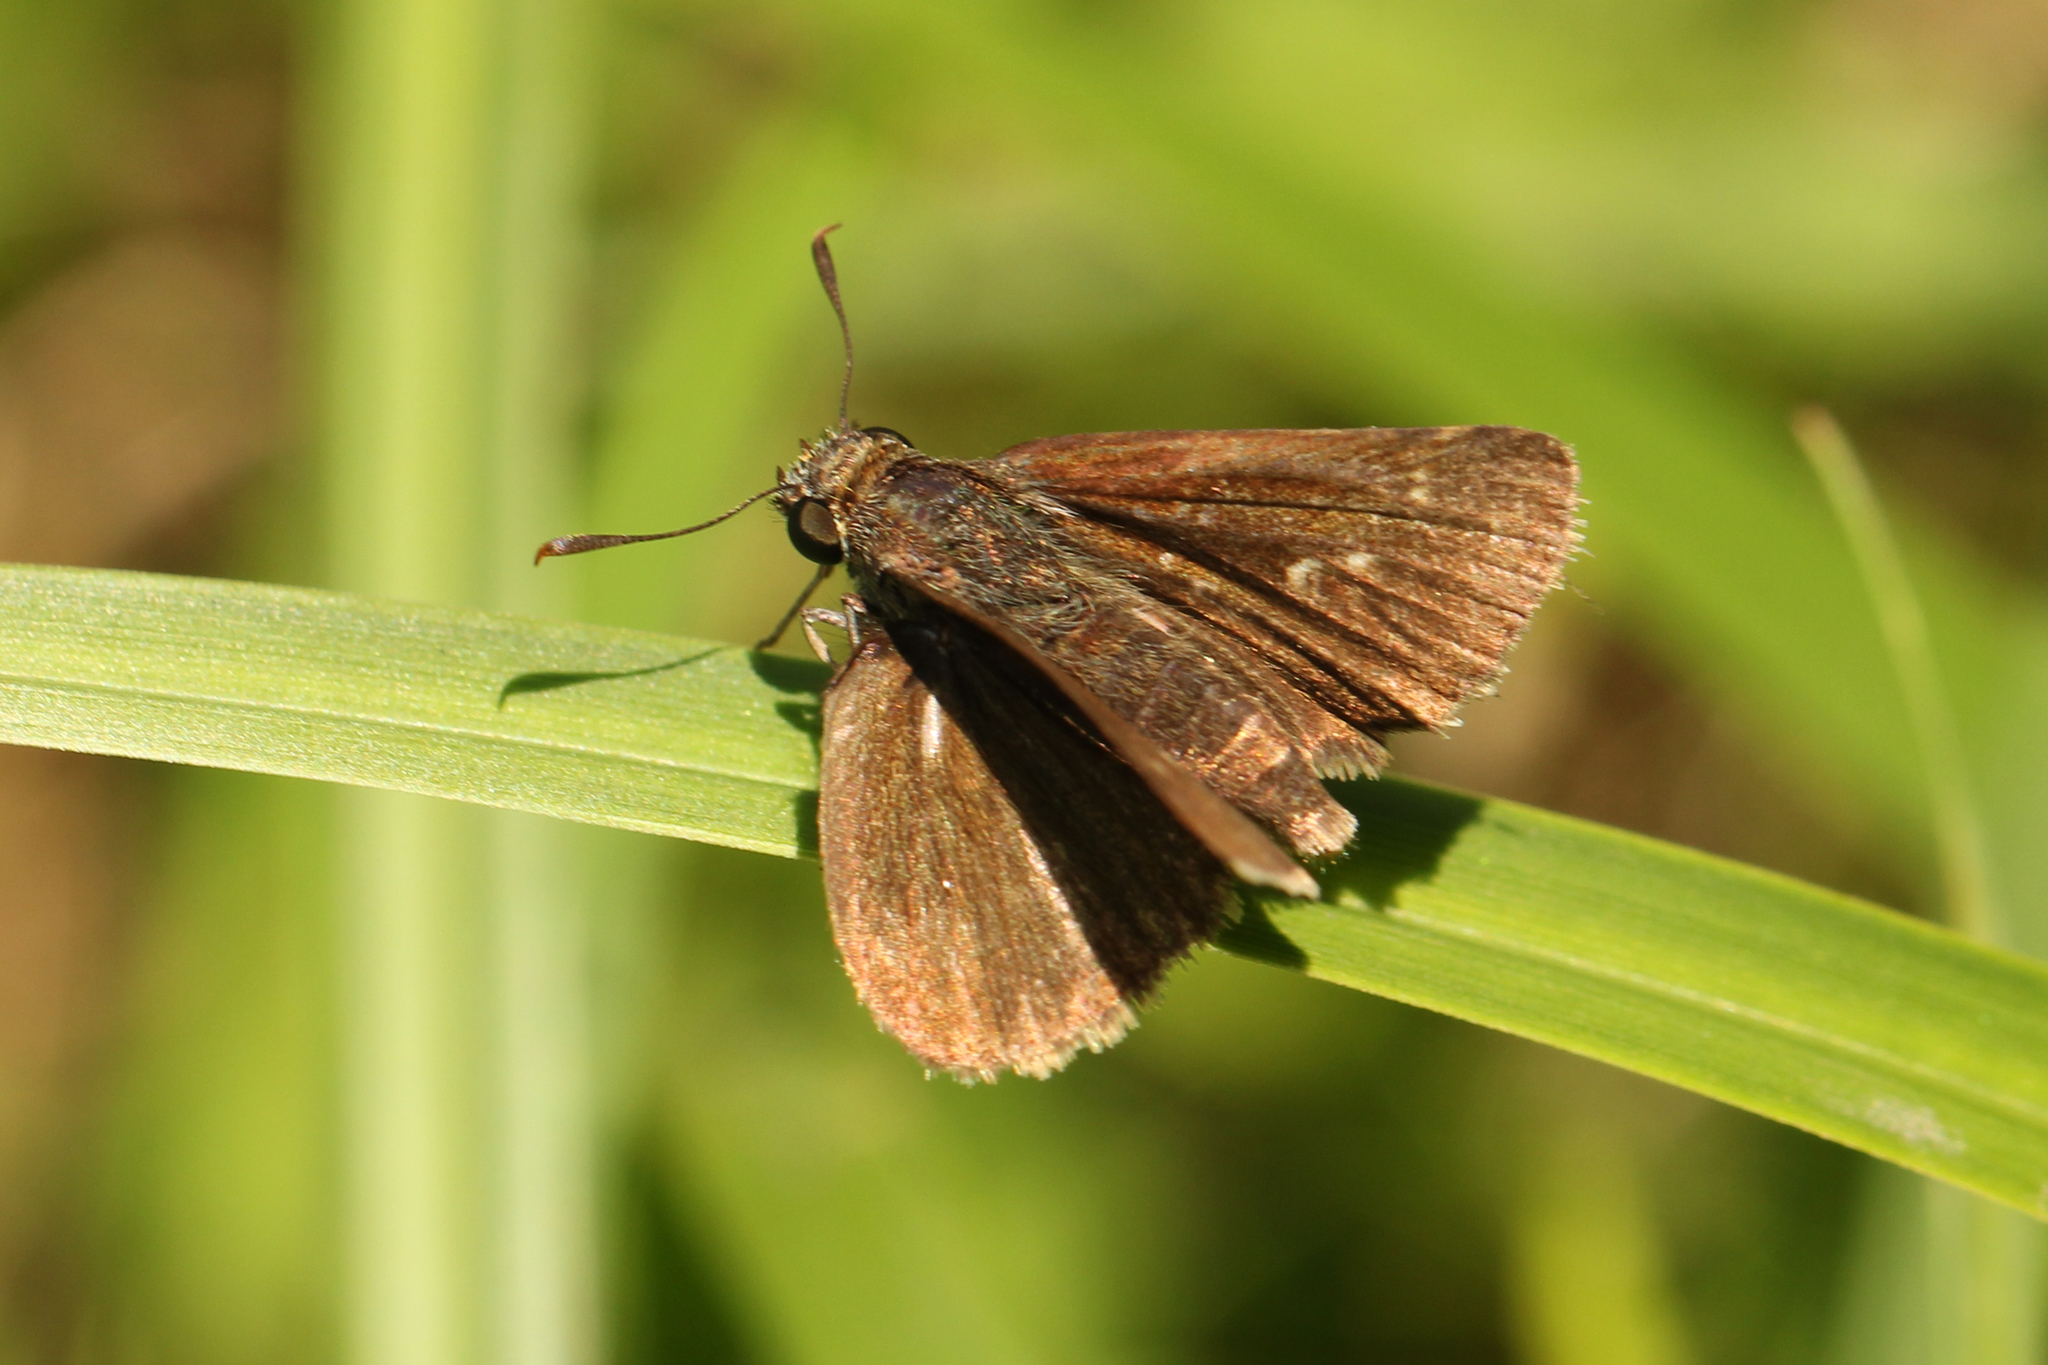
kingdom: Animalia
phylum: Arthropoda
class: Insecta
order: Lepidoptera
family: Hesperiidae
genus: Euphyes
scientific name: Euphyes vestris
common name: Dun skipper
